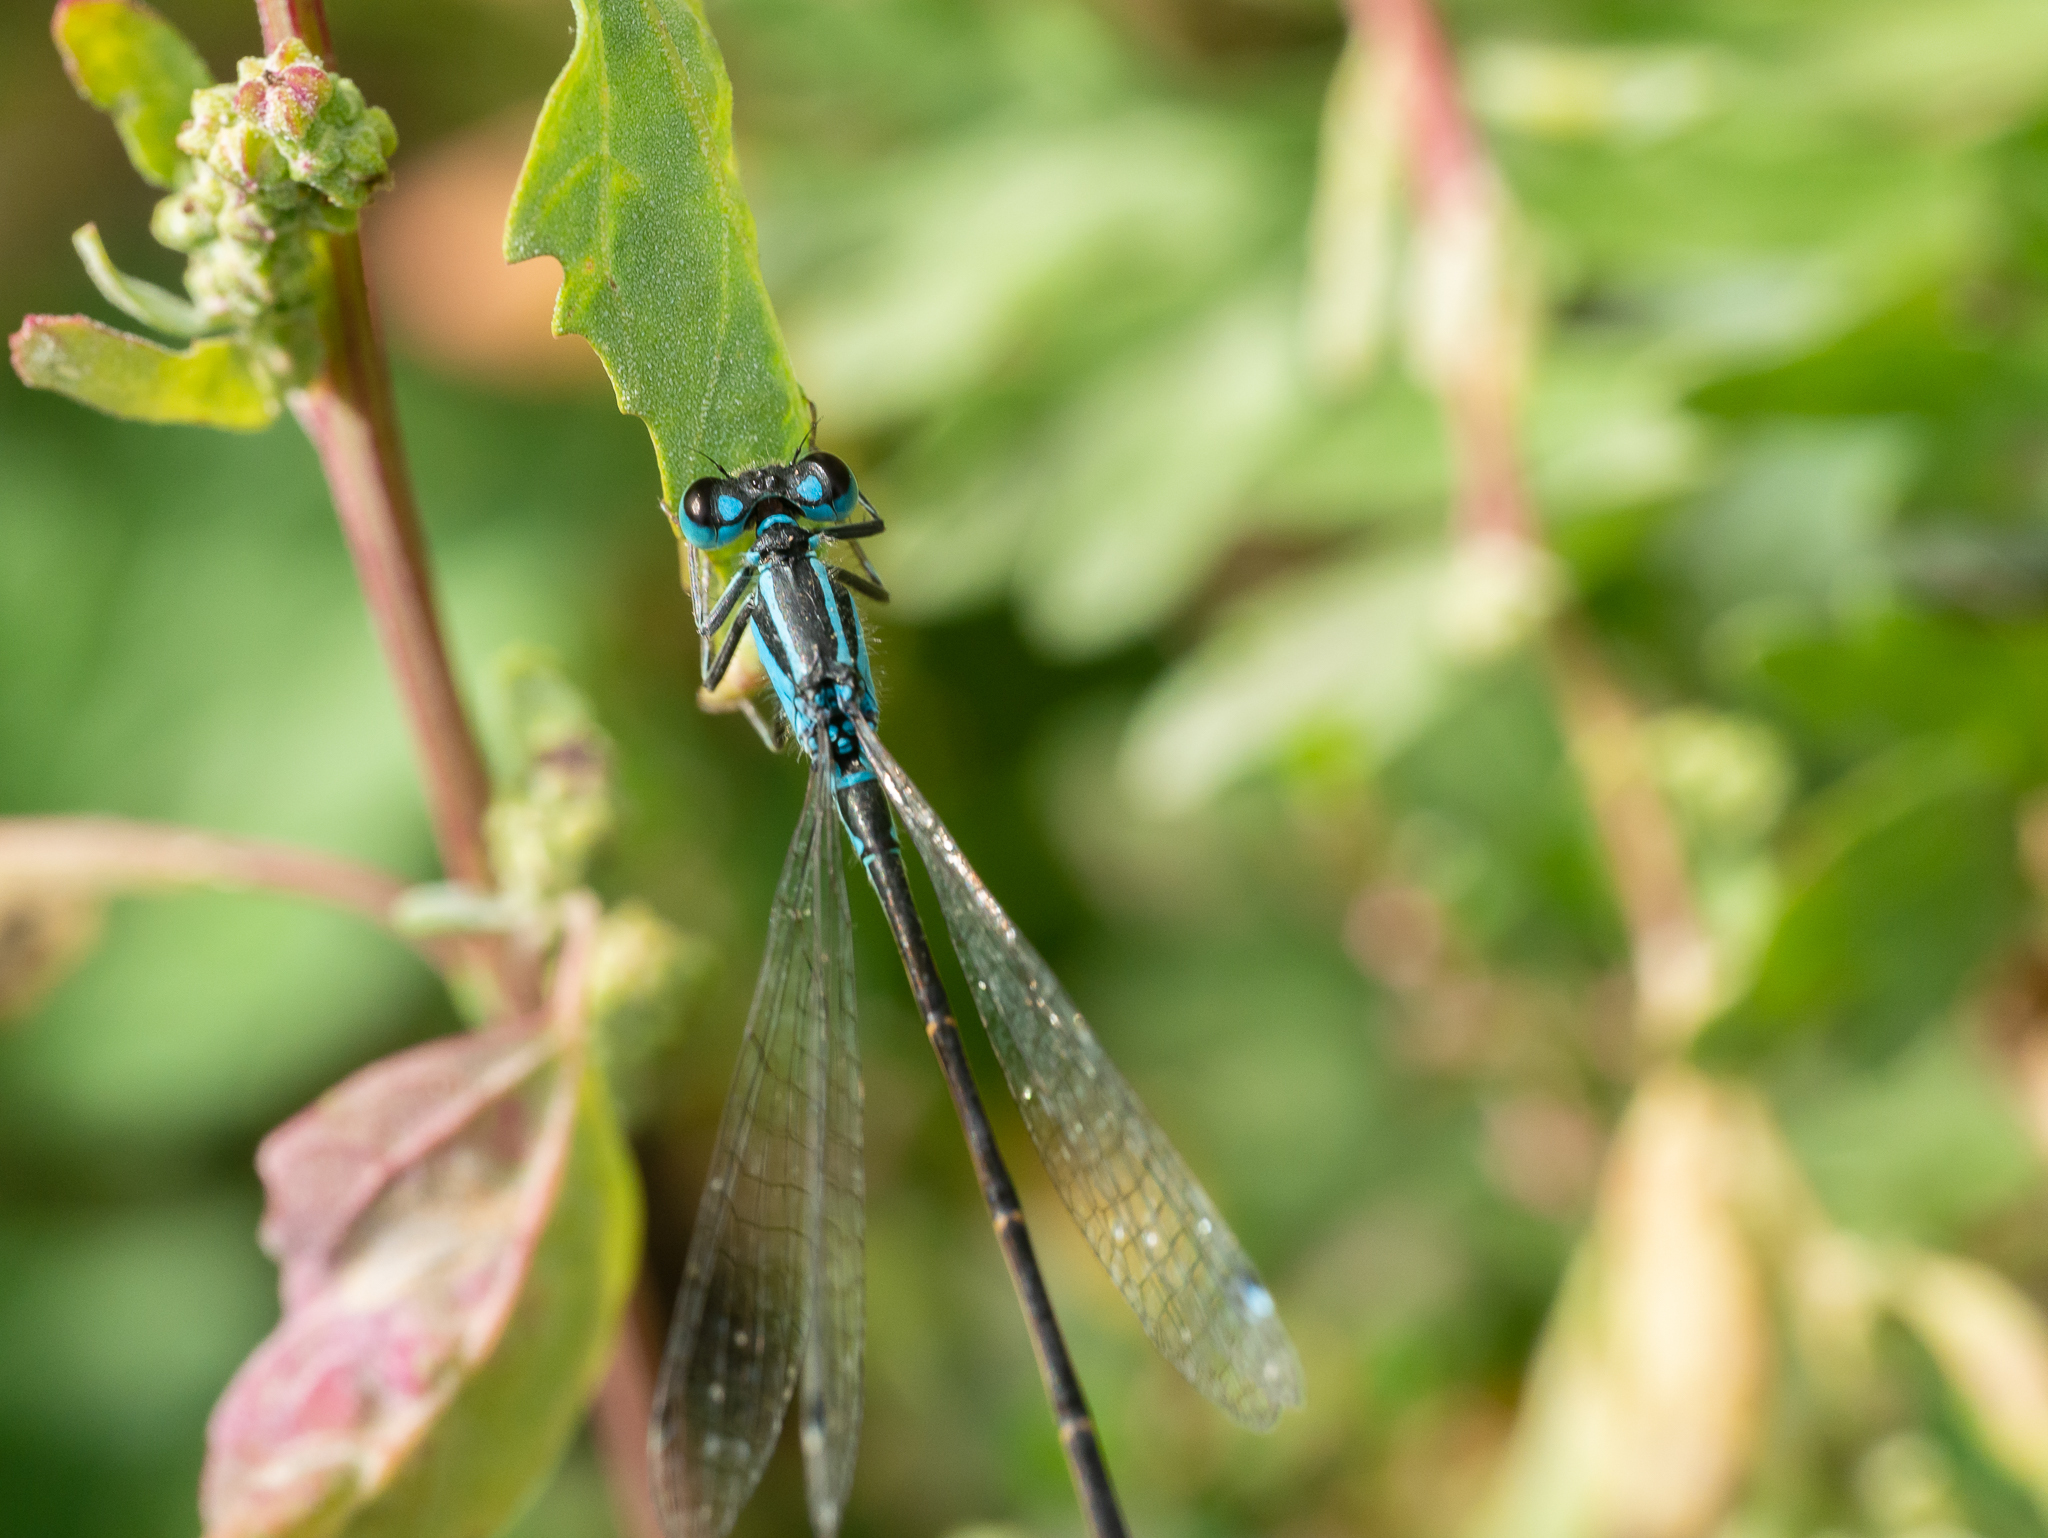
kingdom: Animalia
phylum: Arthropoda
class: Insecta
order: Odonata
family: Coenagrionidae
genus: Ischnura
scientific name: Ischnura elegans
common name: Blue-tailed damselfly
